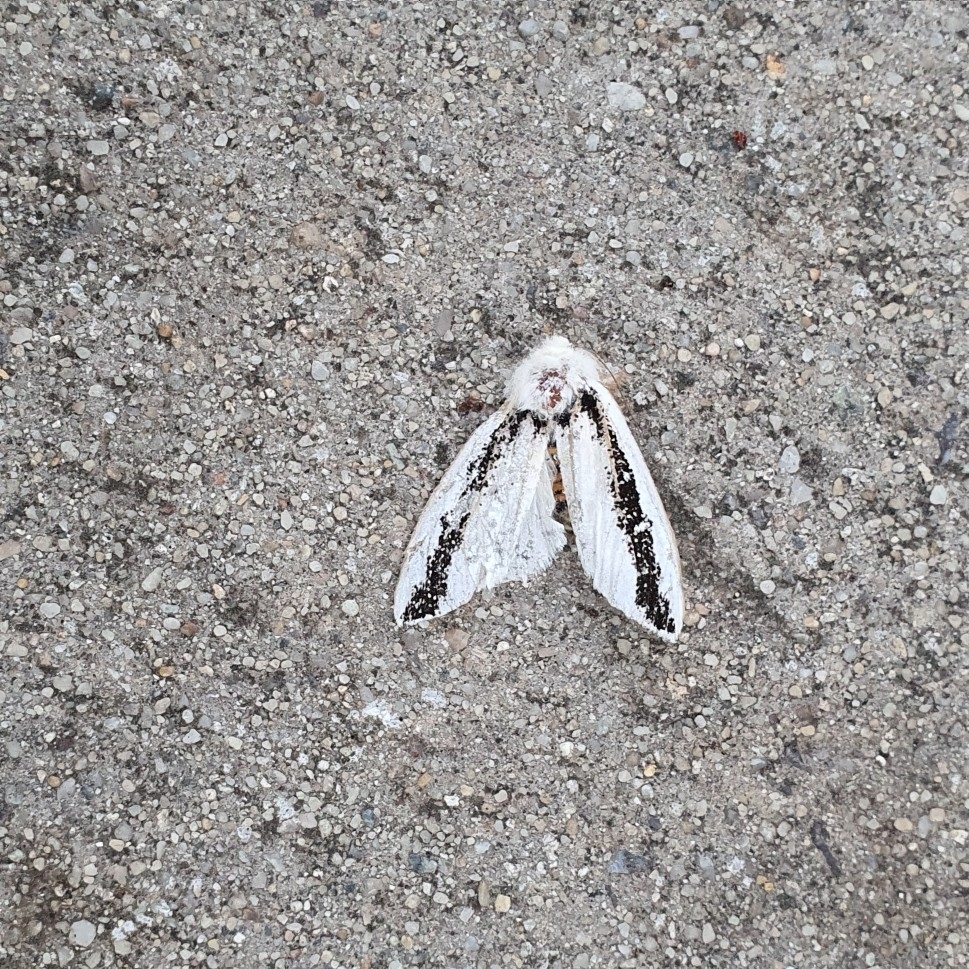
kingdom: Animalia
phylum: Arthropoda
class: Insecta
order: Lepidoptera
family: Oenosandridae
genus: Oenosandra
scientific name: Oenosandra boisduvalii
